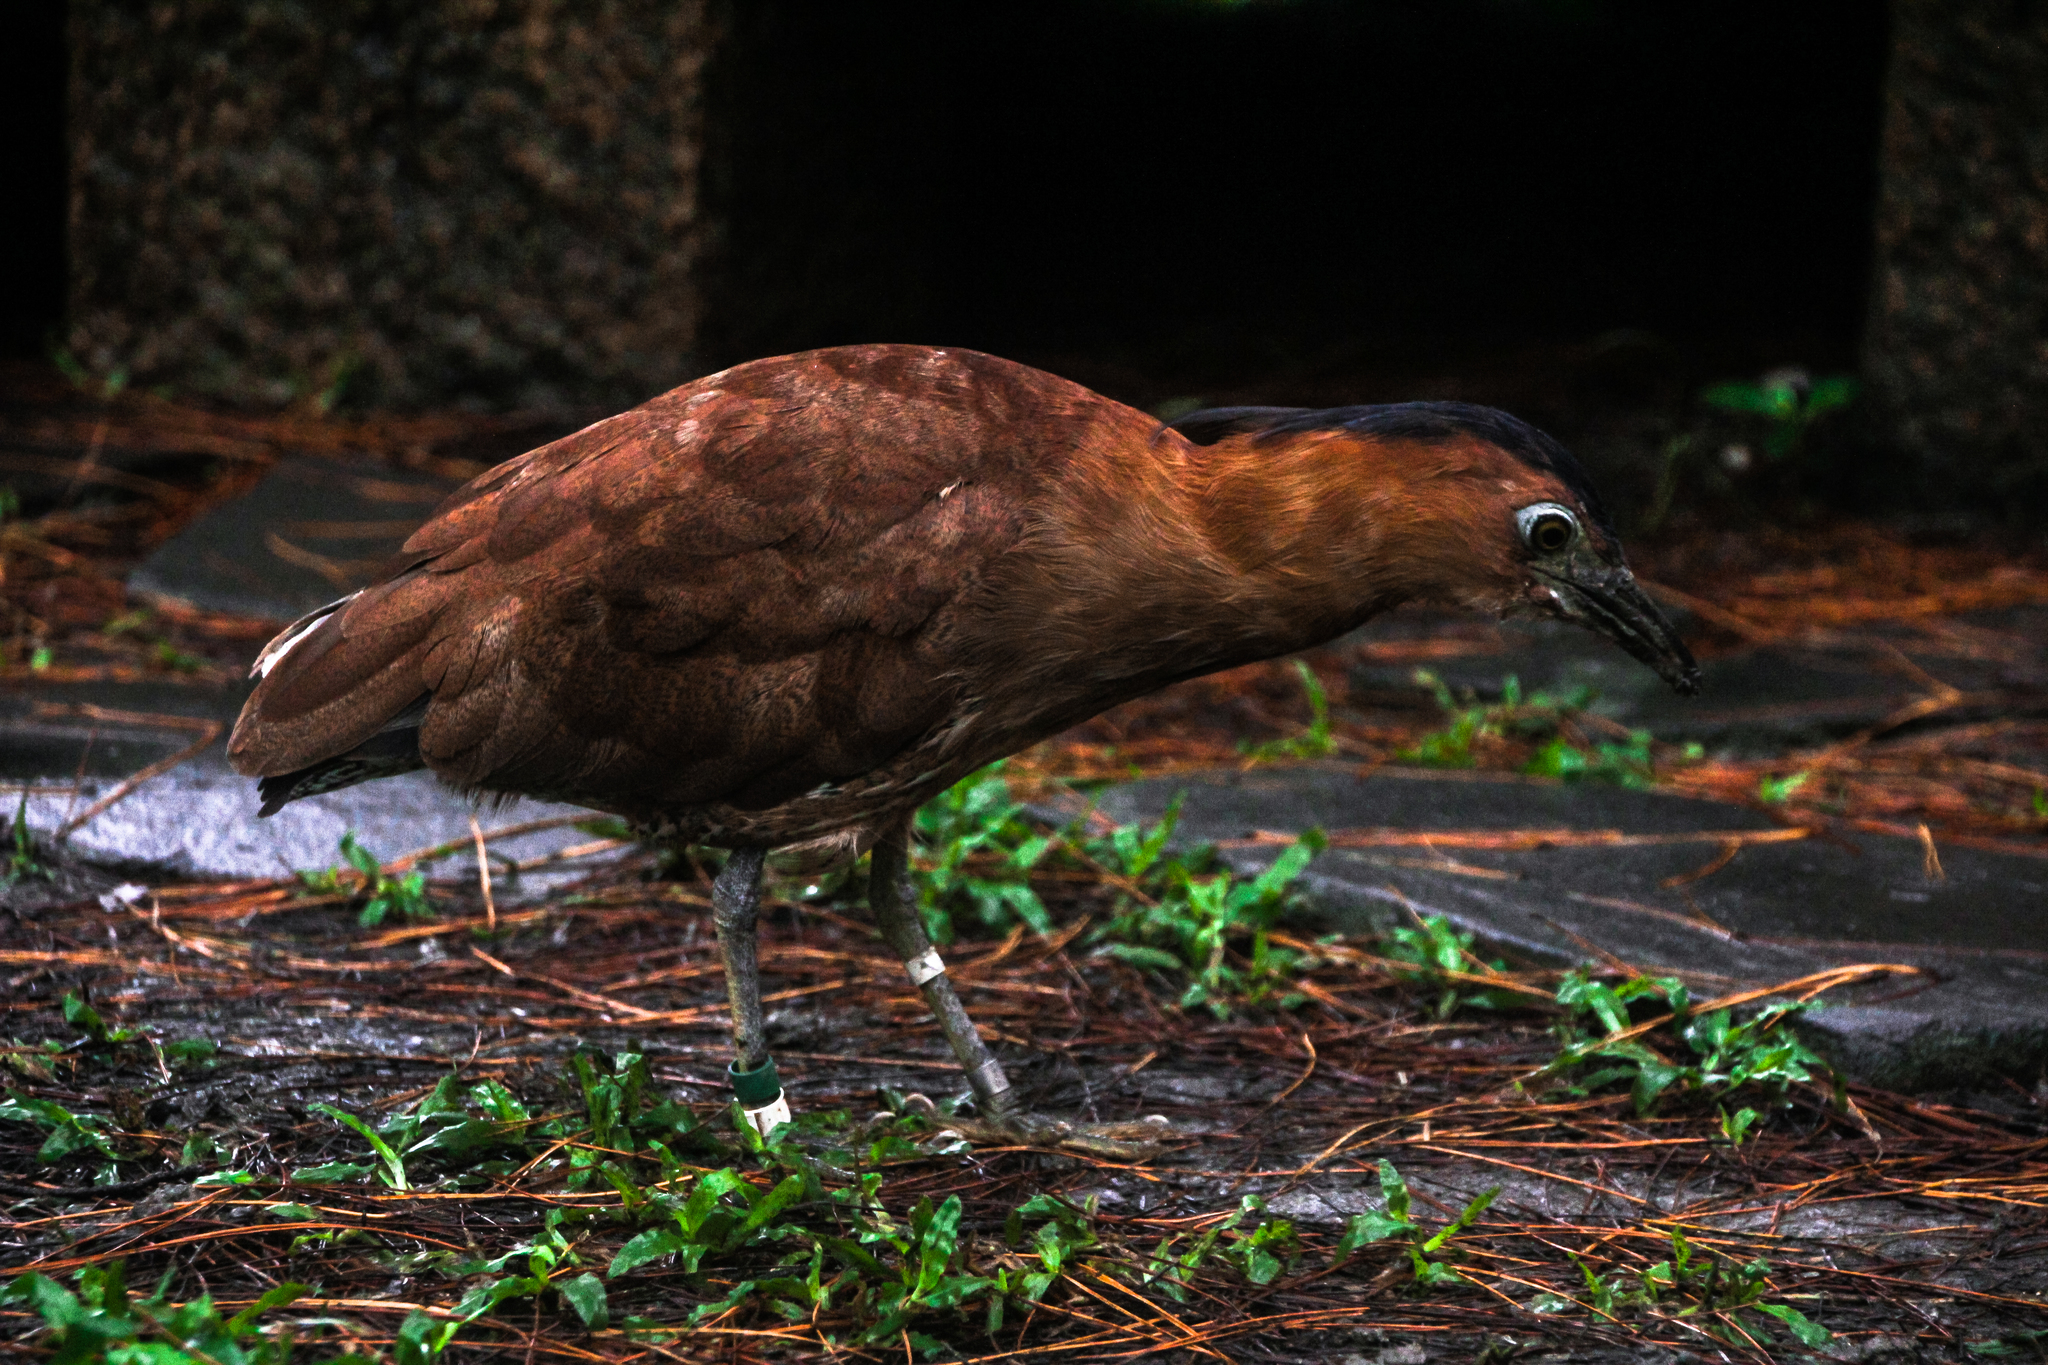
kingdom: Animalia
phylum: Chordata
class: Aves
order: Pelecaniformes
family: Ardeidae
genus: Gorsachius
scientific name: Gorsachius melanolophus
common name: Malayan night heron
